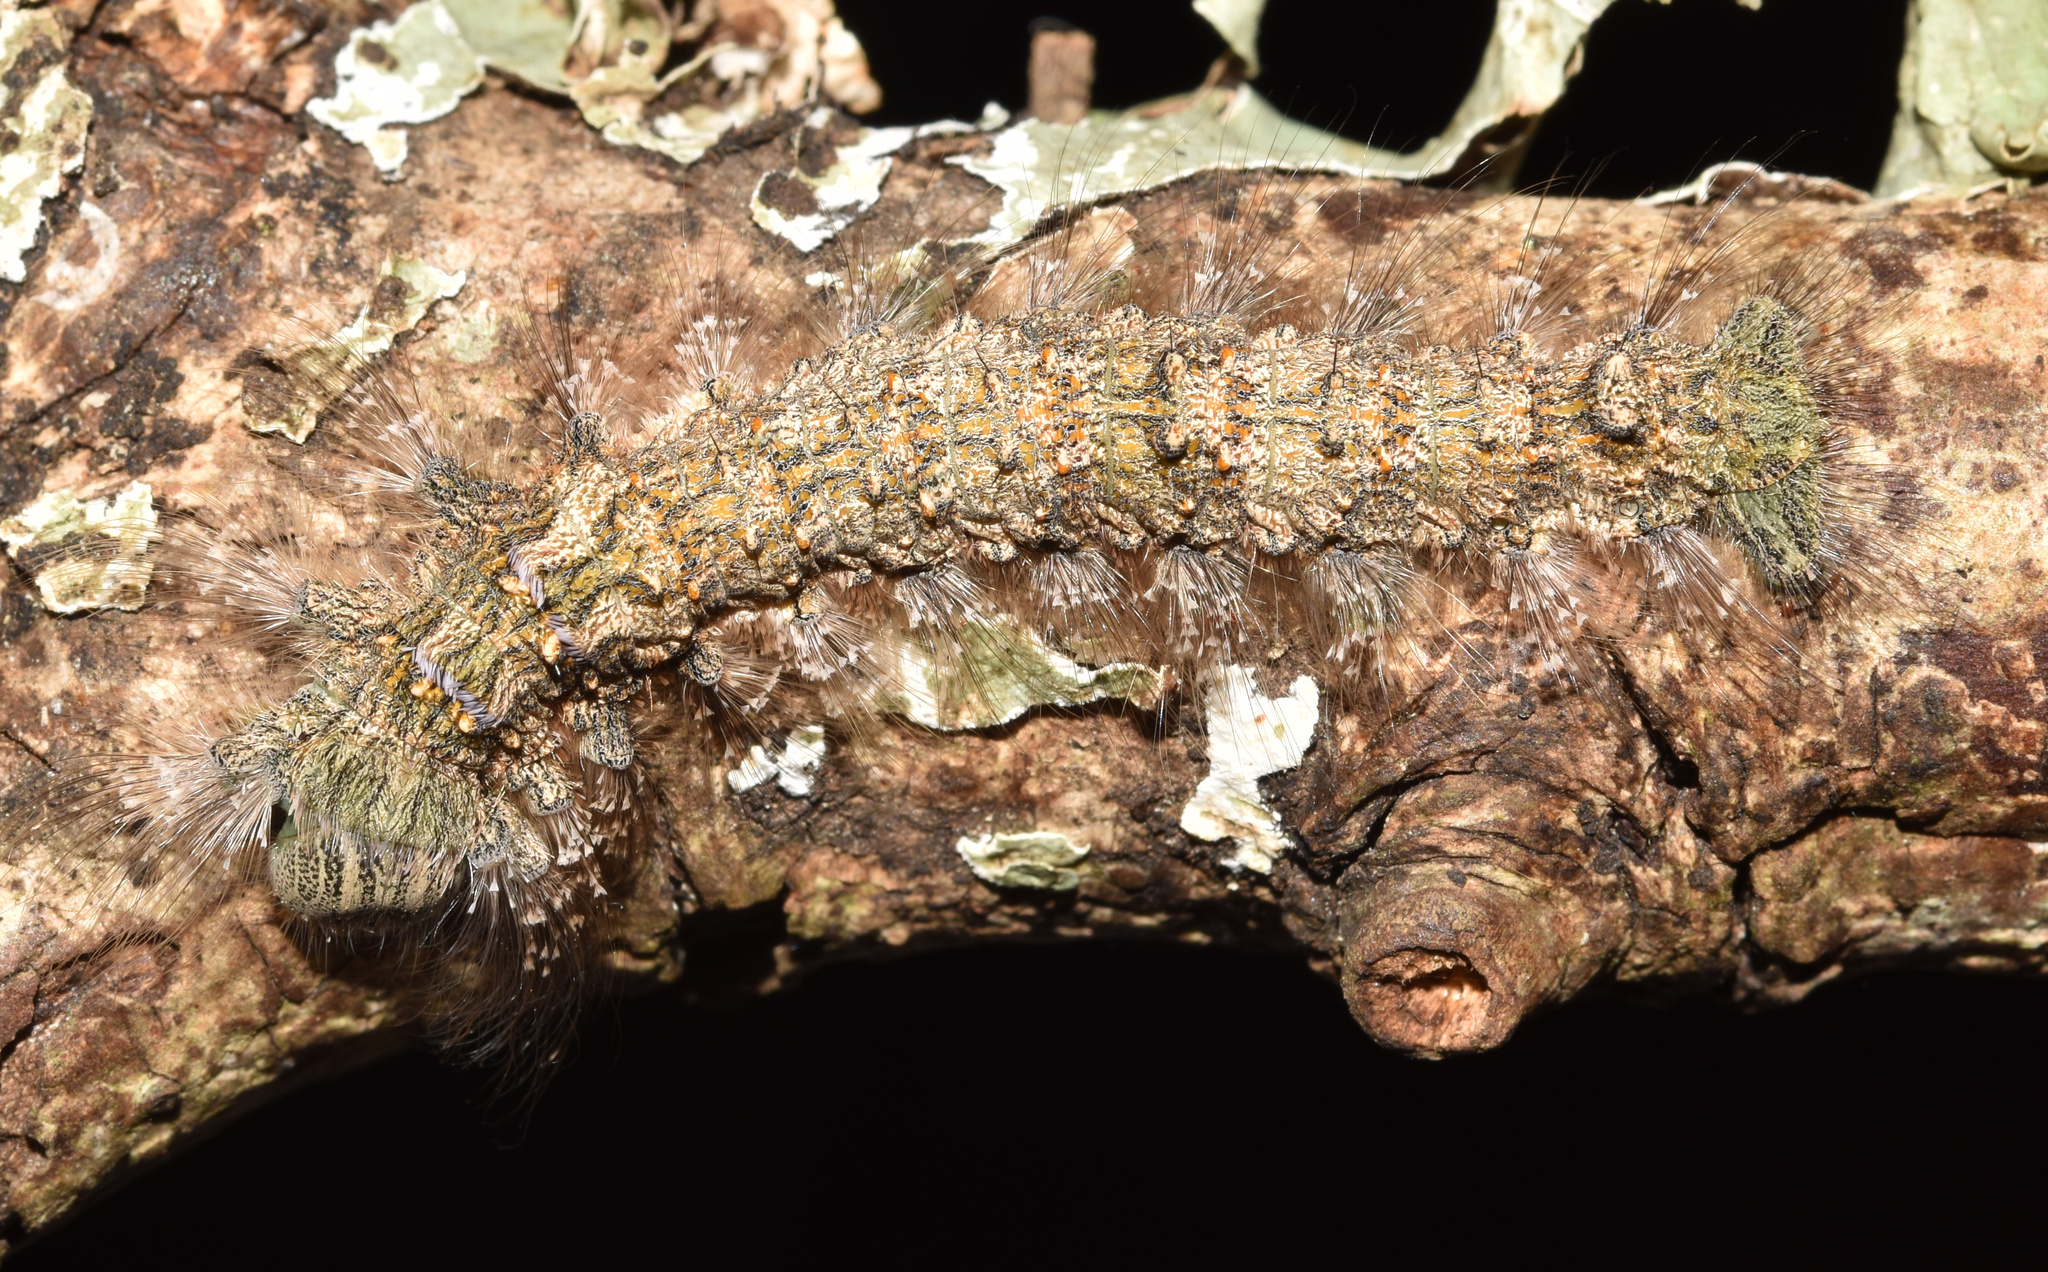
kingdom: Animalia
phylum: Arthropoda
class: Insecta
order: Lepidoptera
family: Lasiocampidae
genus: Stoermeriana
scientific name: Stoermeriana scapulosa
